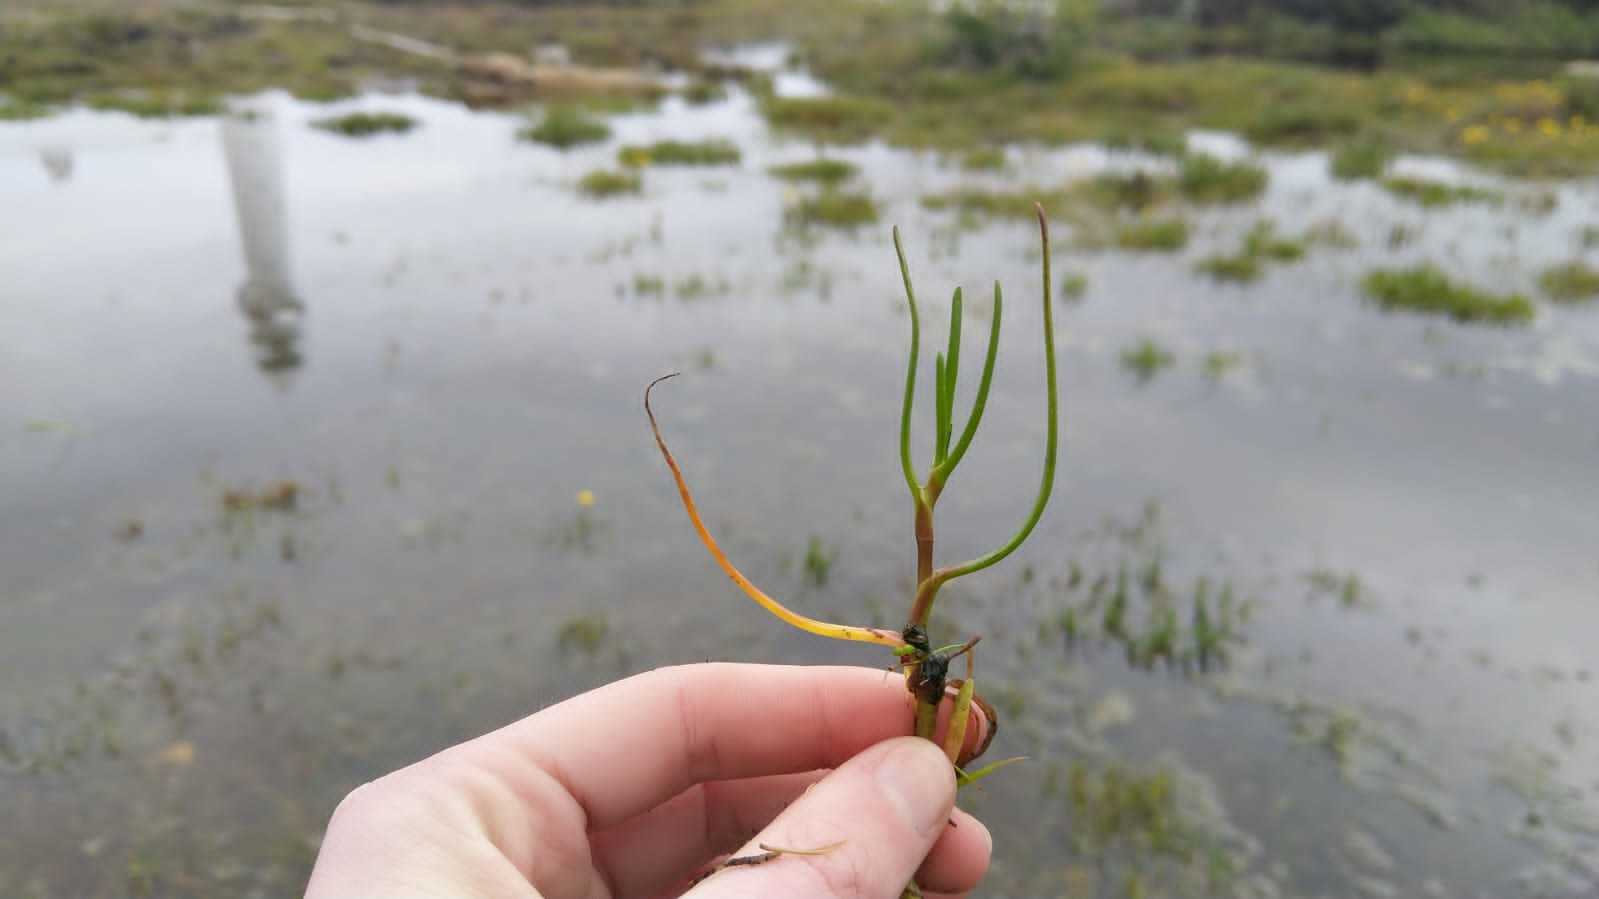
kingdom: Plantae
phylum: Tracheophyta
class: Magnoliopsida
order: Asterales
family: Asteraceae
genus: Cotula
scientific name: Cotula vulgaris
